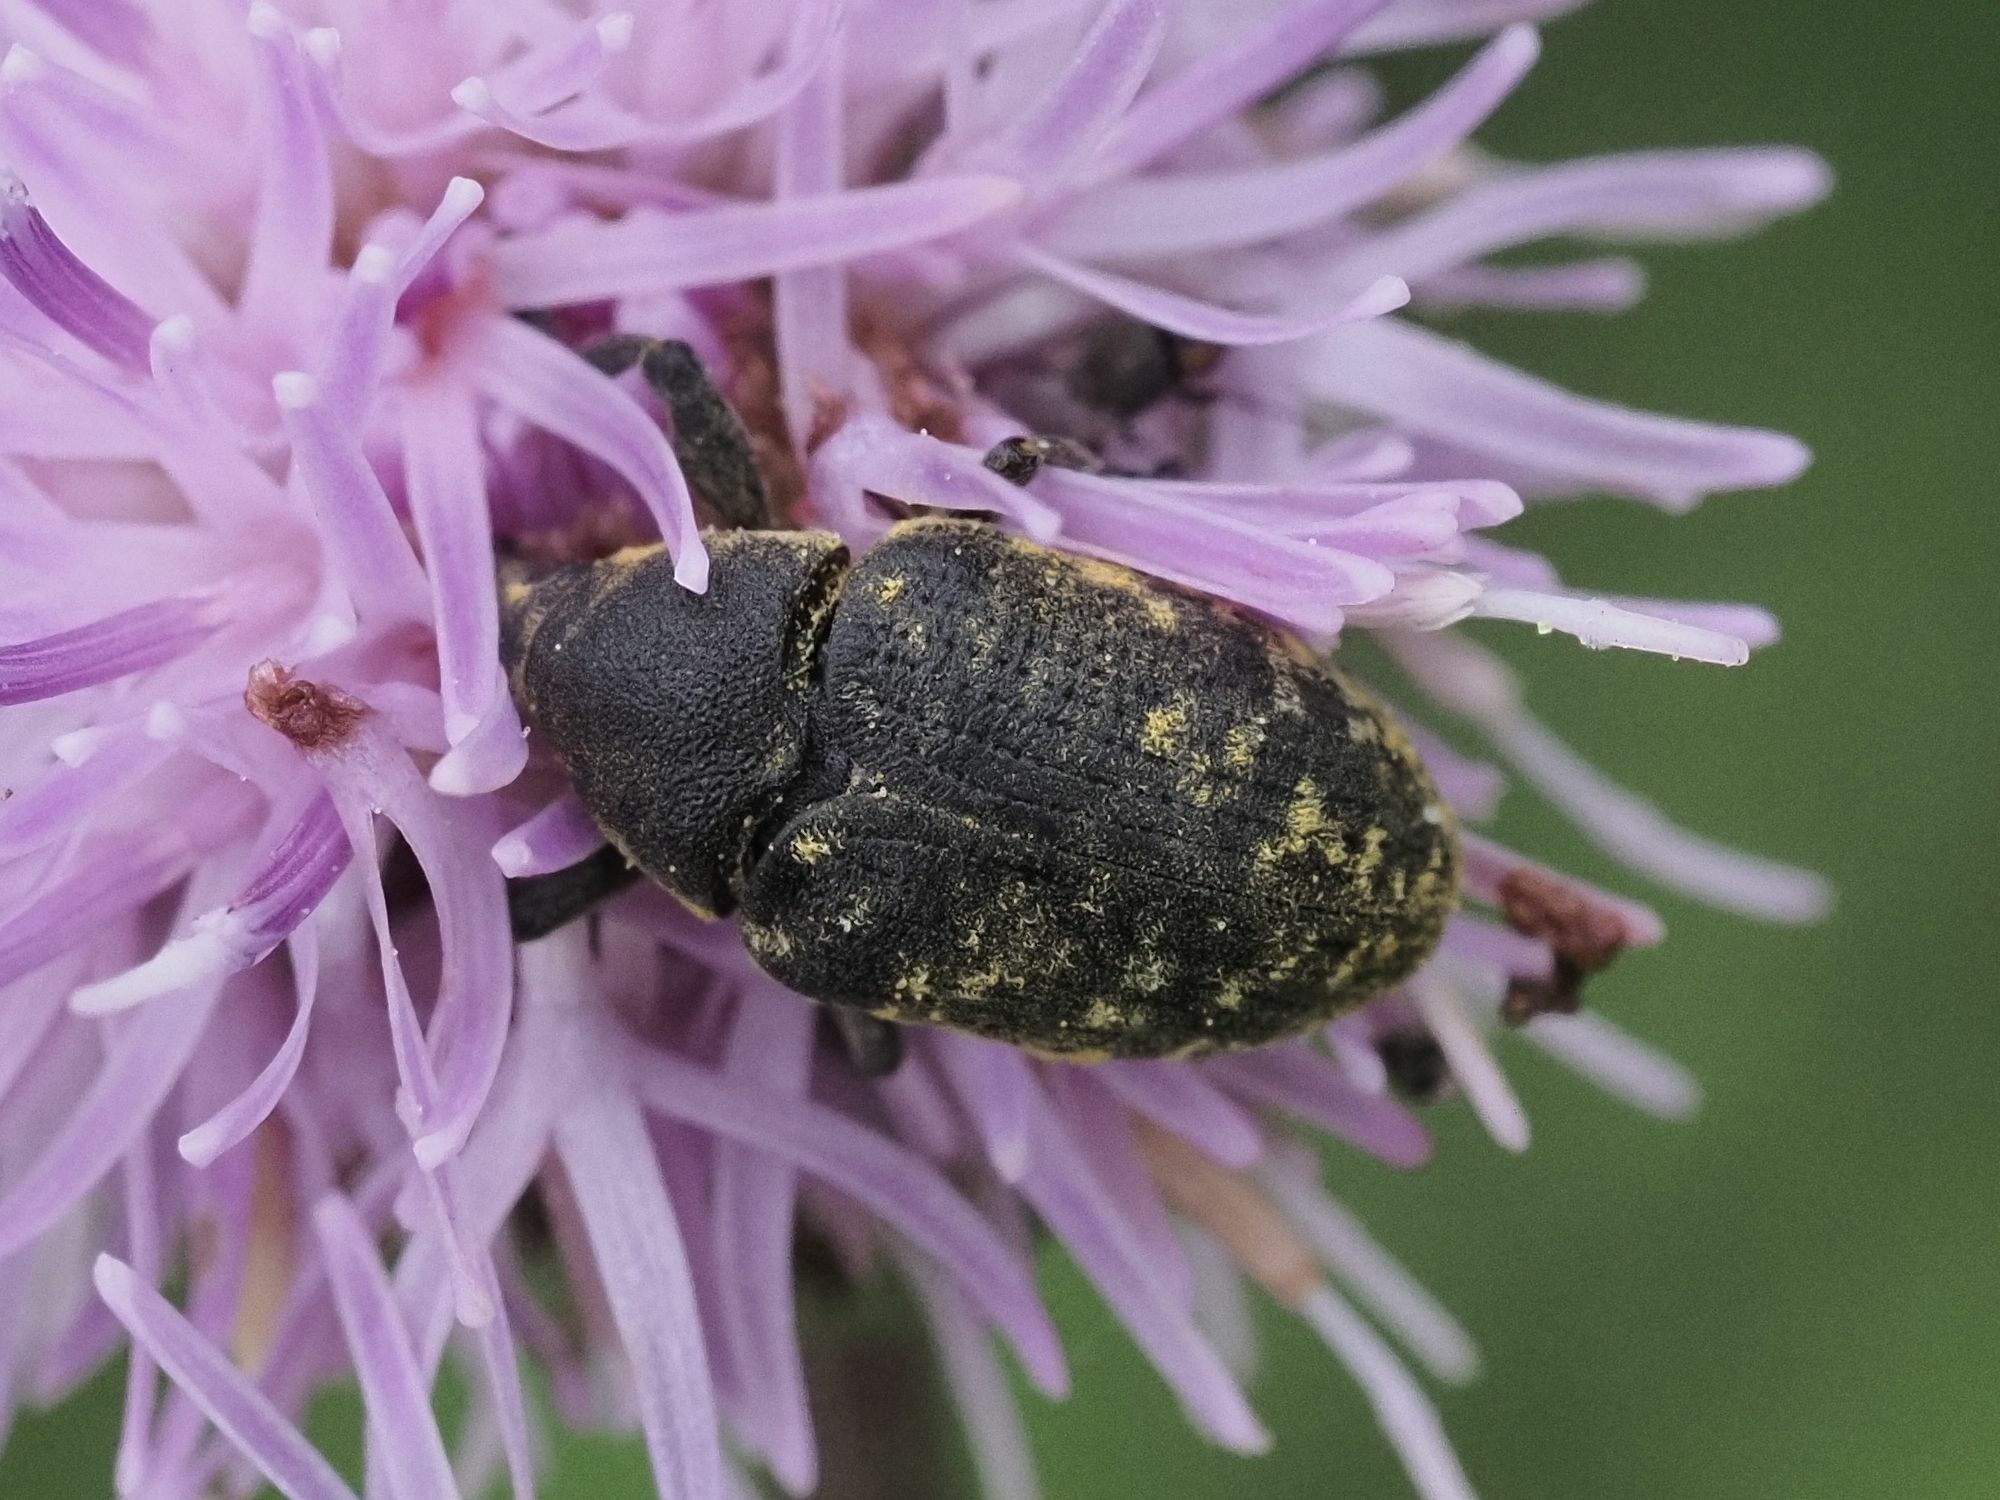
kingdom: Animalia
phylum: Arthropoda
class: Insecta
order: Coleoptera
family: Curculionidae
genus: Larinus
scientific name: Larinus turbinatus
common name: Weevil
